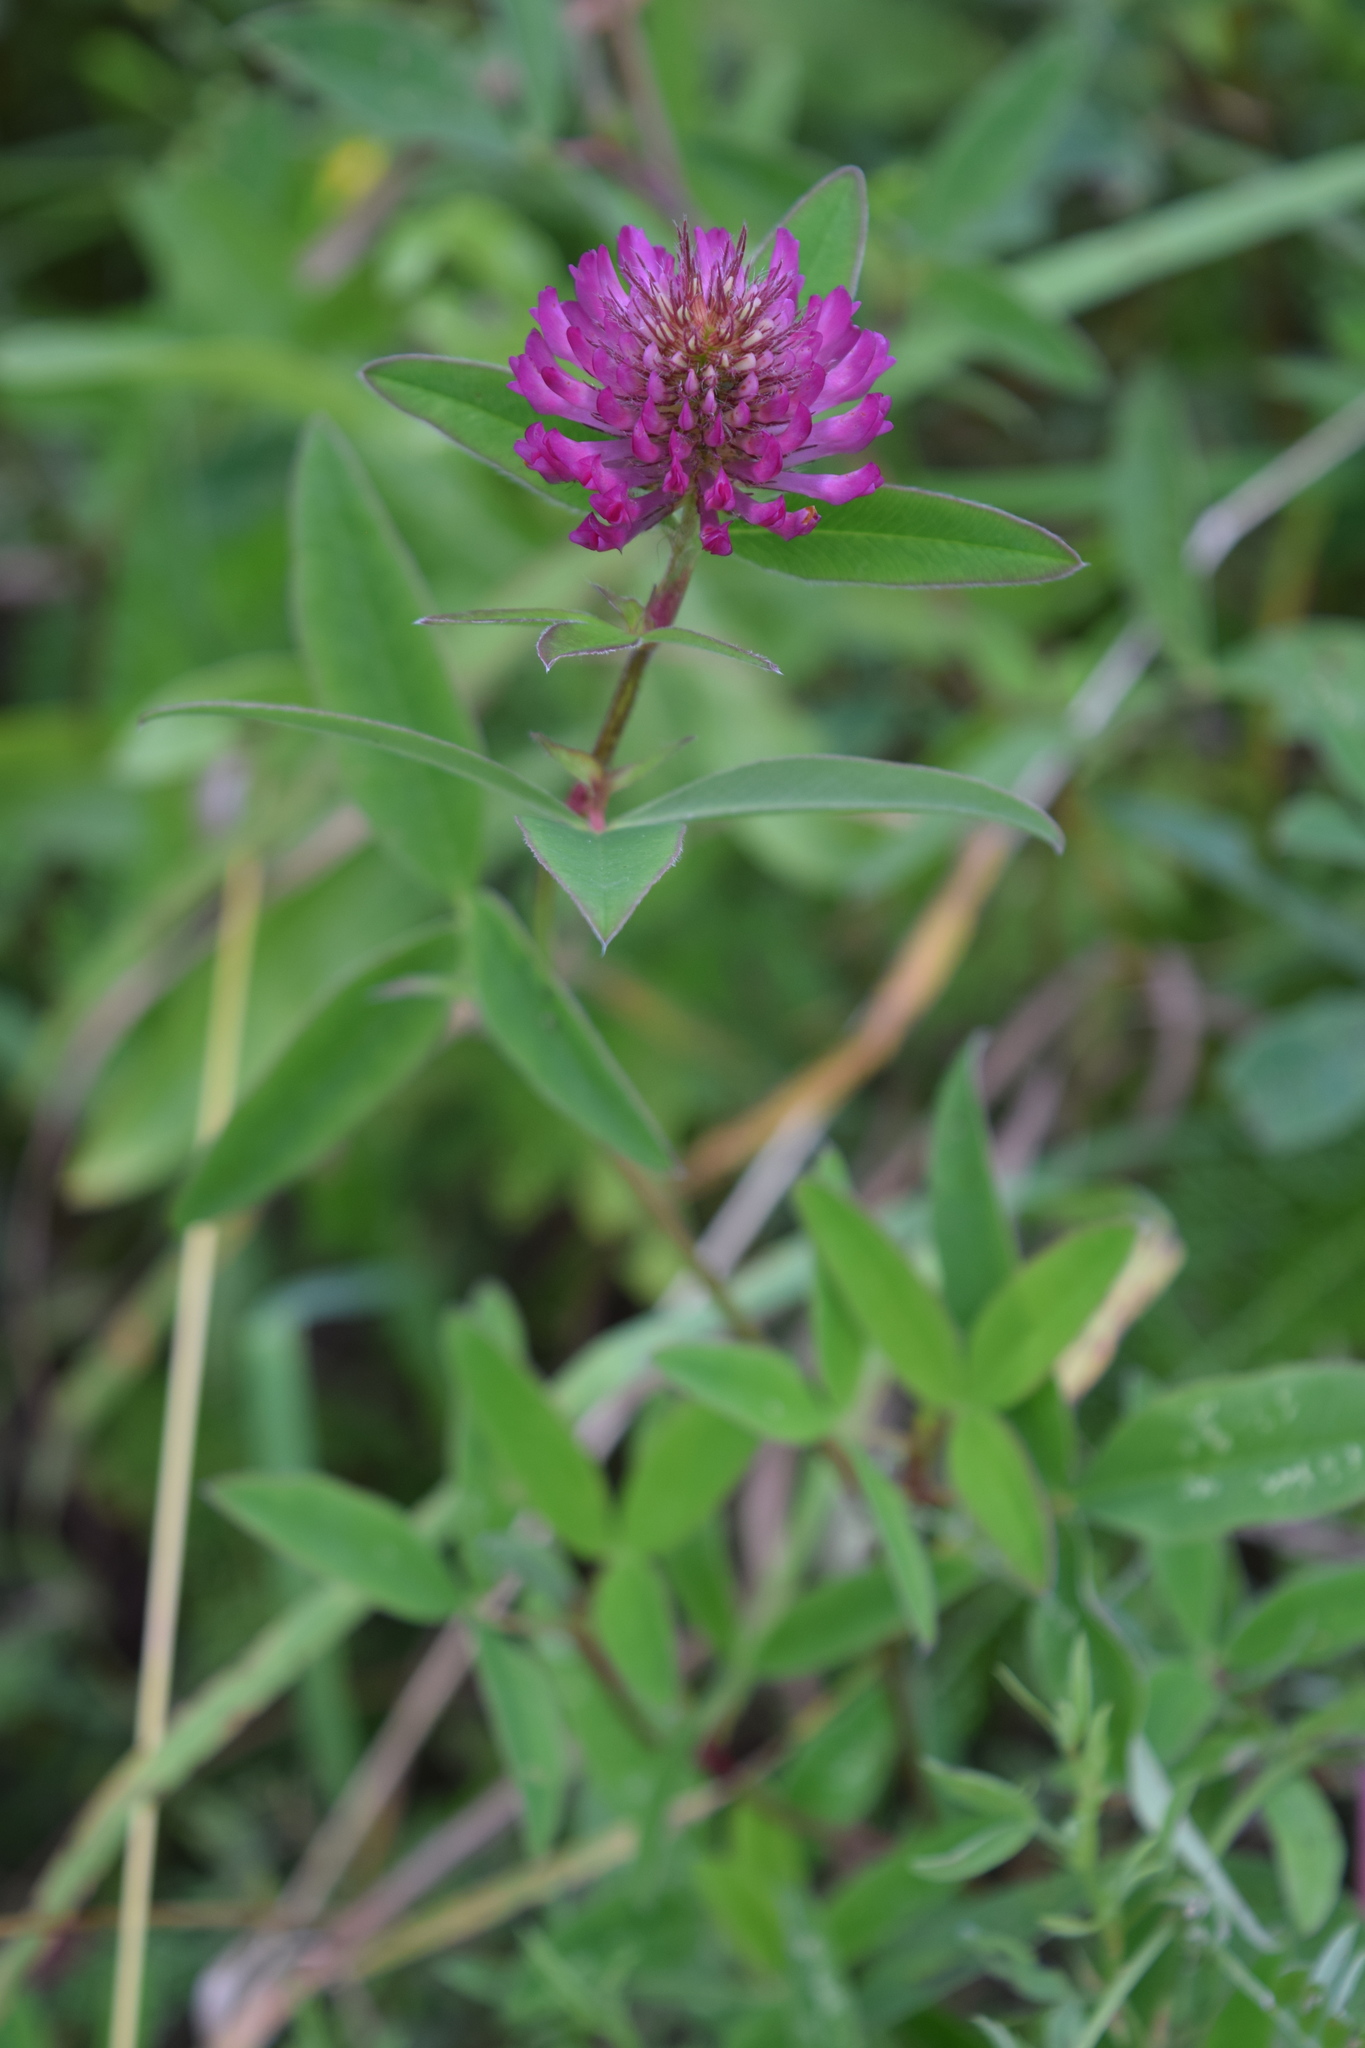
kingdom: Plantae
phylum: Tracheophyta
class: Magnoliopsida
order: Fabales
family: Fabaceae
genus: Trifolium
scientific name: Trifolium medium
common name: Zigzag clover
